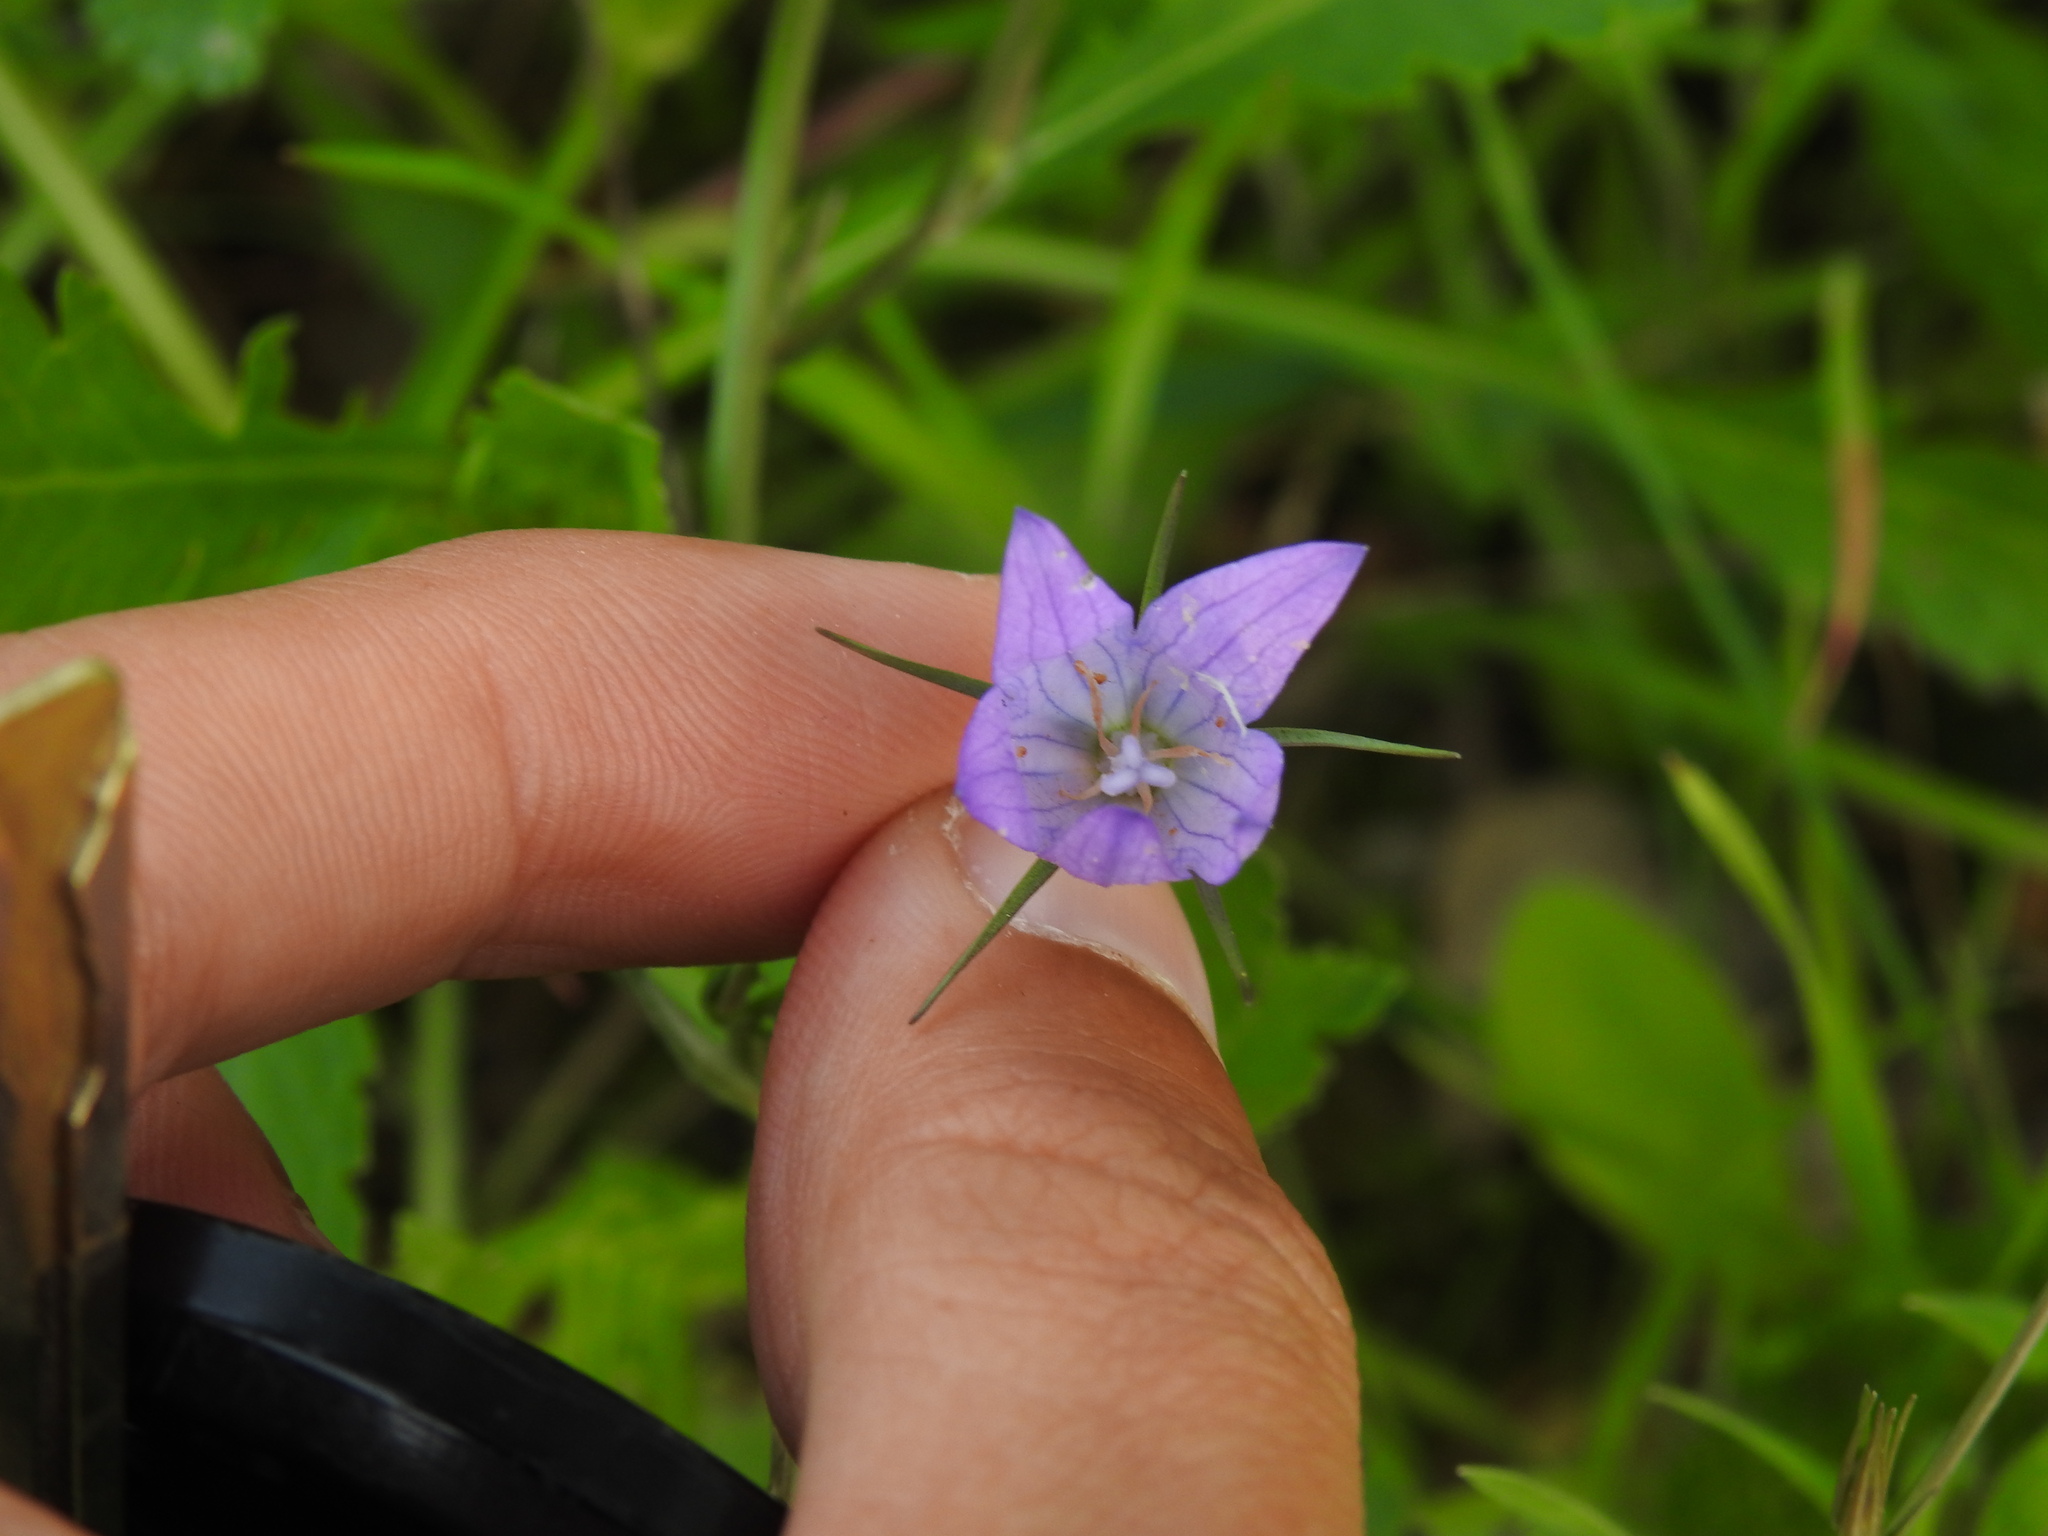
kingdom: Plantae
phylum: Tracheophyta
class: Magnoliopsida
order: Asterales
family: Campanulaceae
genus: Campanula
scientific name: Campanula rapunculus
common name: Rampion bellflower
